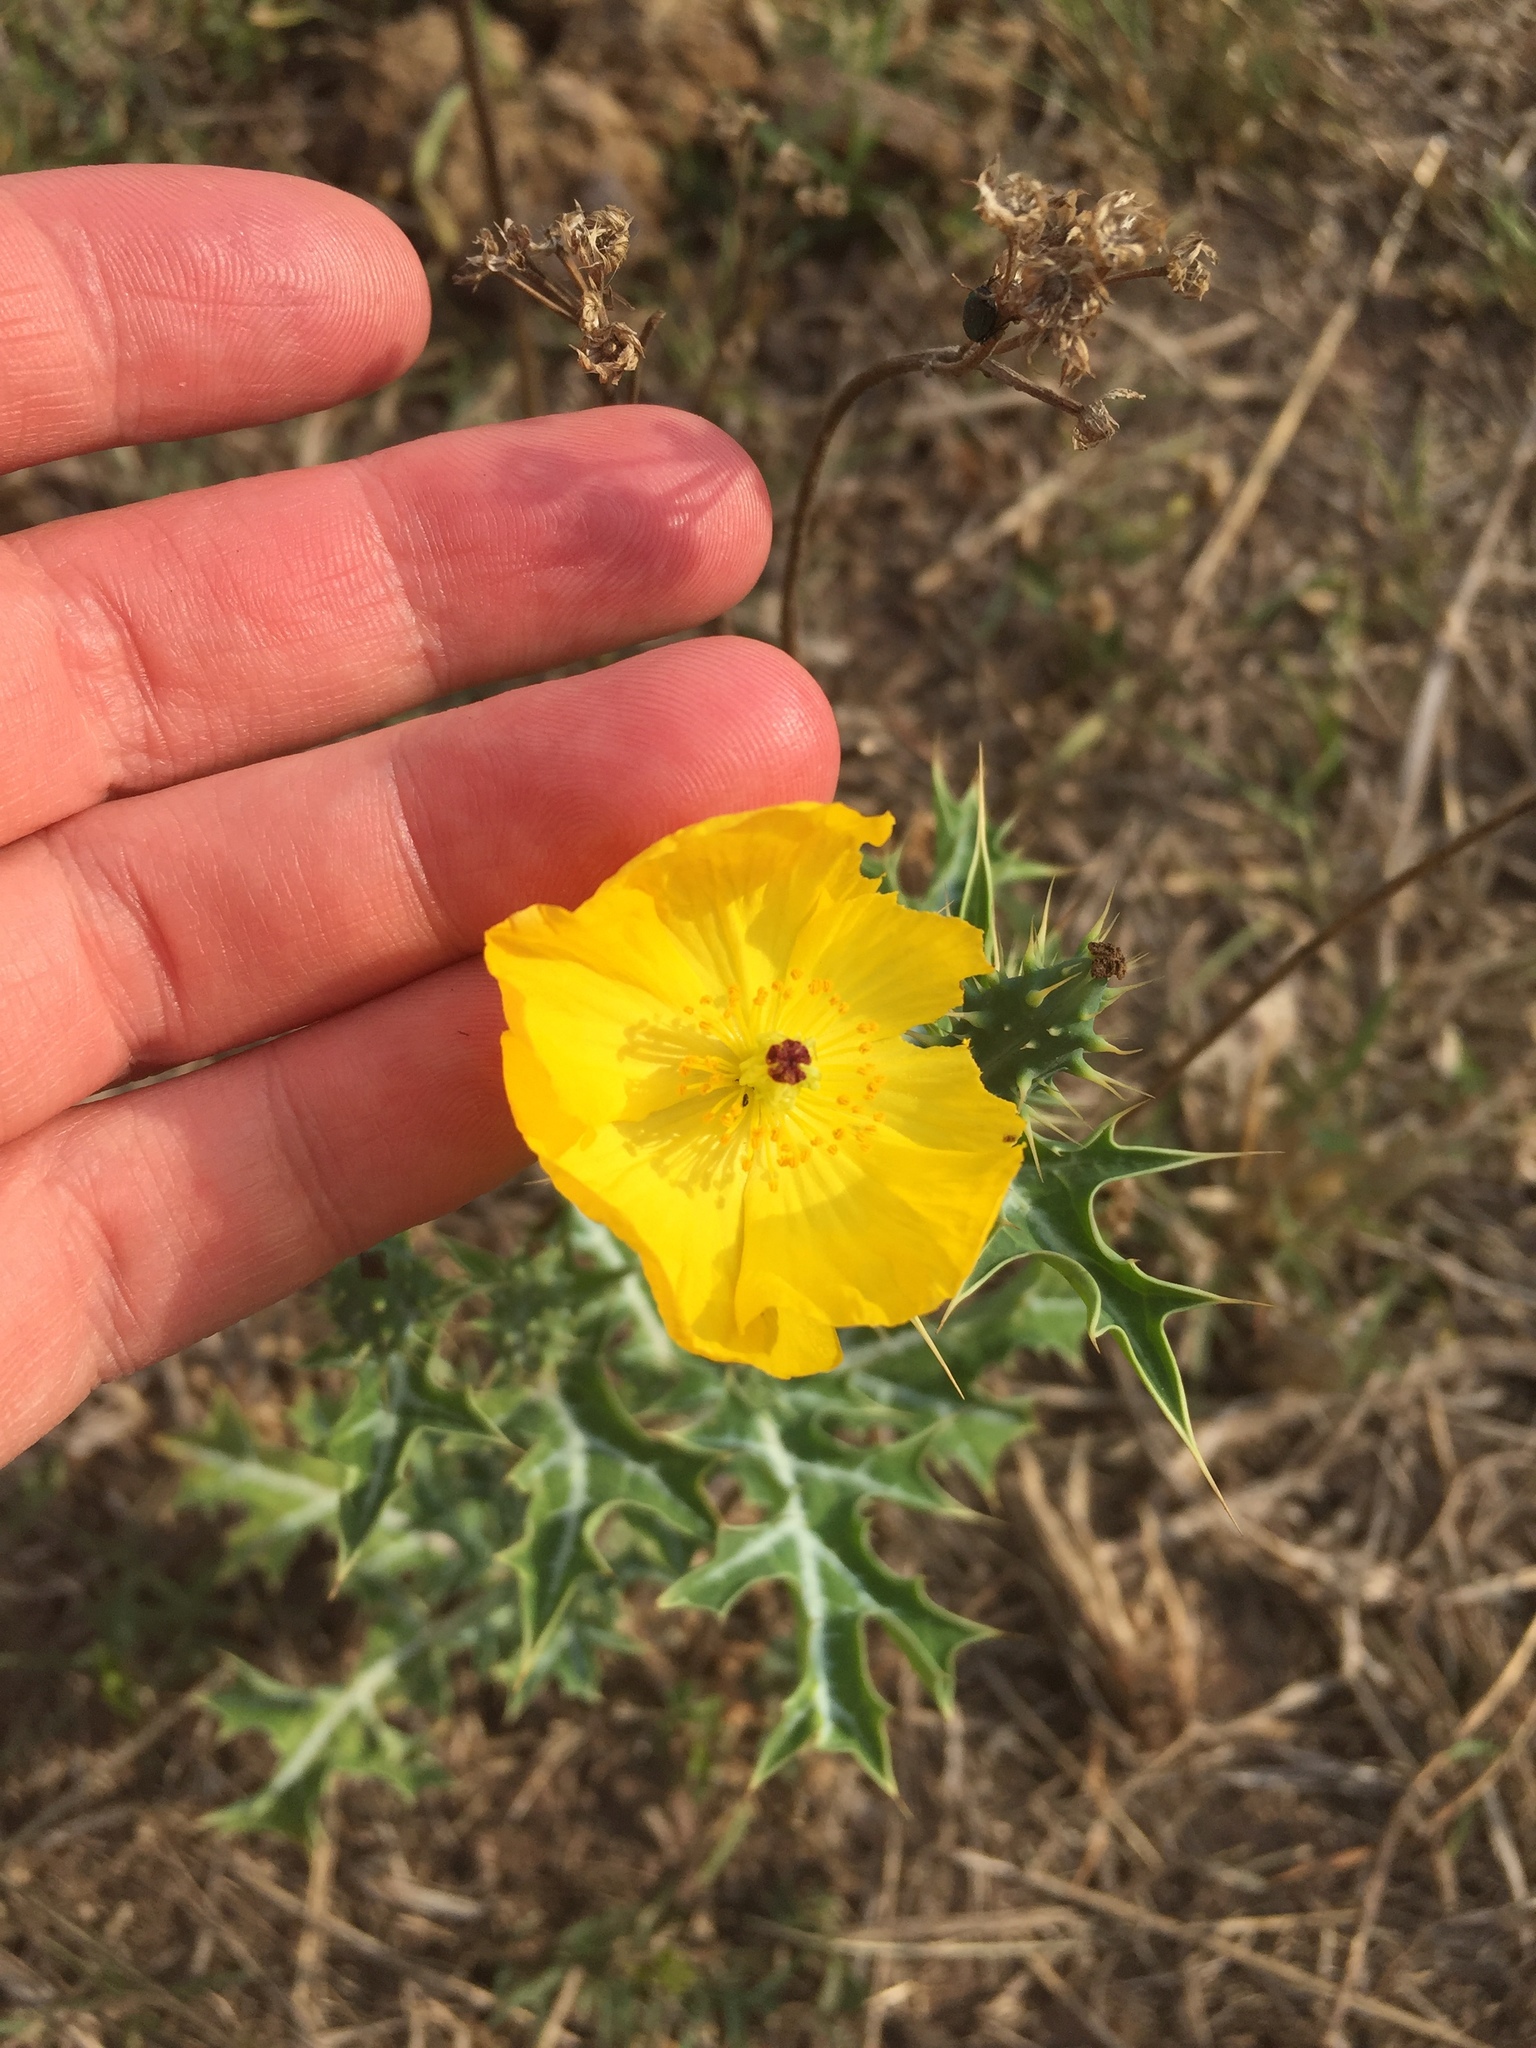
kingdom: Plantae
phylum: Tracheophyta
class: Magnoliopsida
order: Ranunculales
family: Papaveraceae
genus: Argemone
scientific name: Argemone mexicana
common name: Mexican poppy
